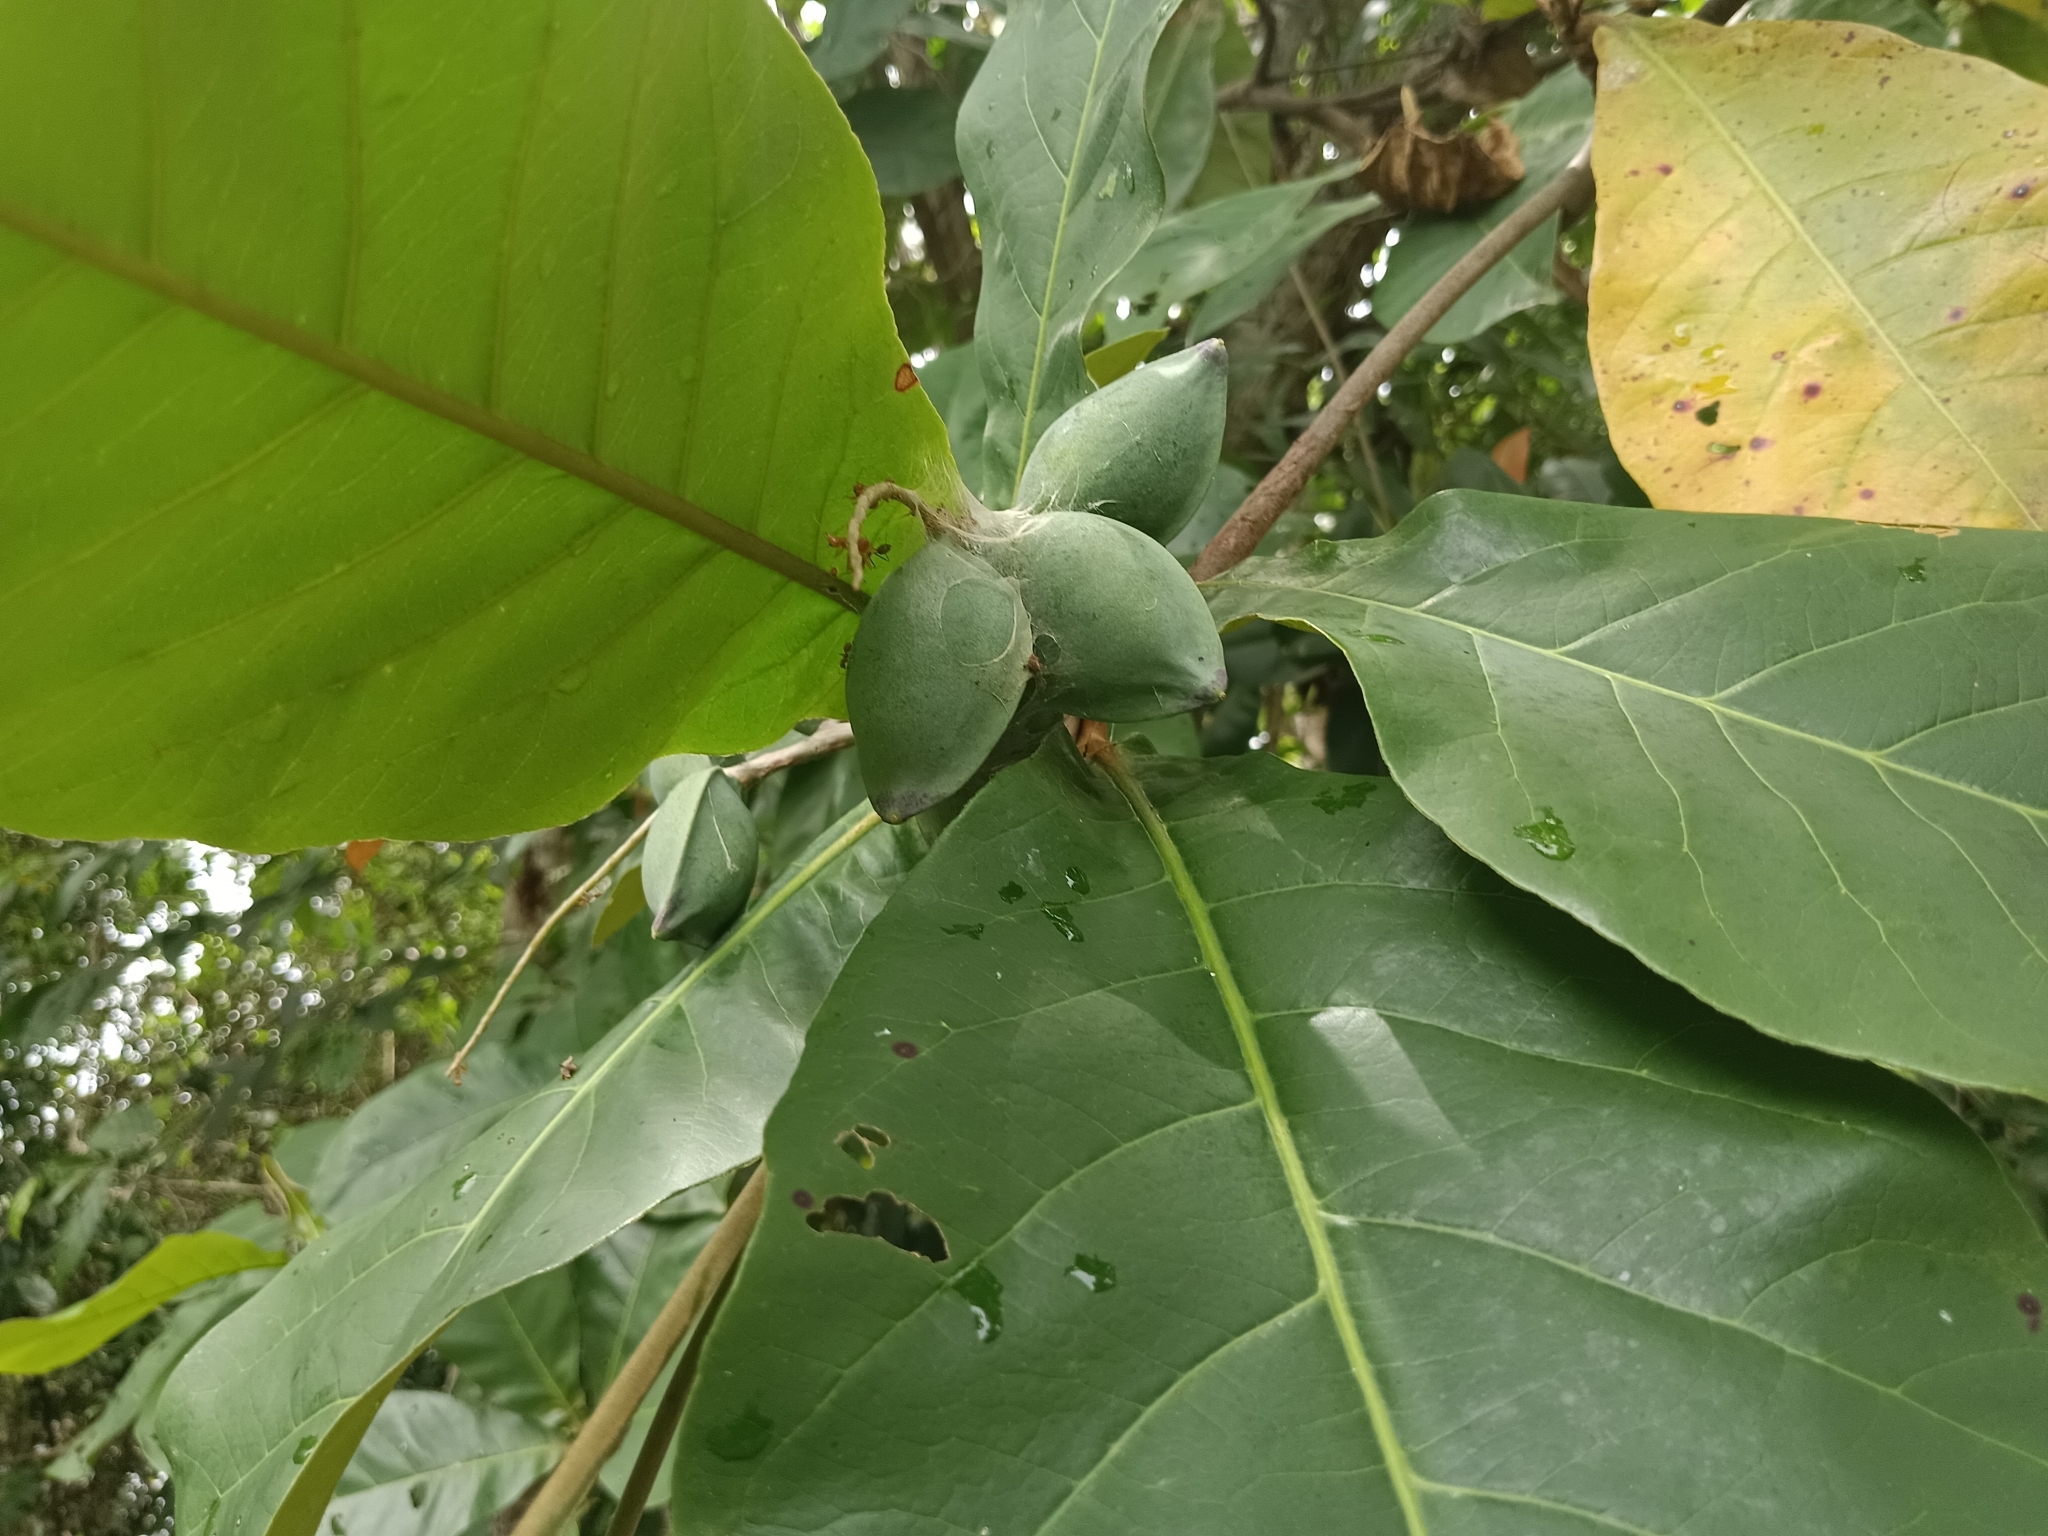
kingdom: Plantae
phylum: Tracheophyta
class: Magnoliopsida
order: Myrtales
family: Combretaceae
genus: Terminalia
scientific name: Terminalia catappa
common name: Tropical almond
